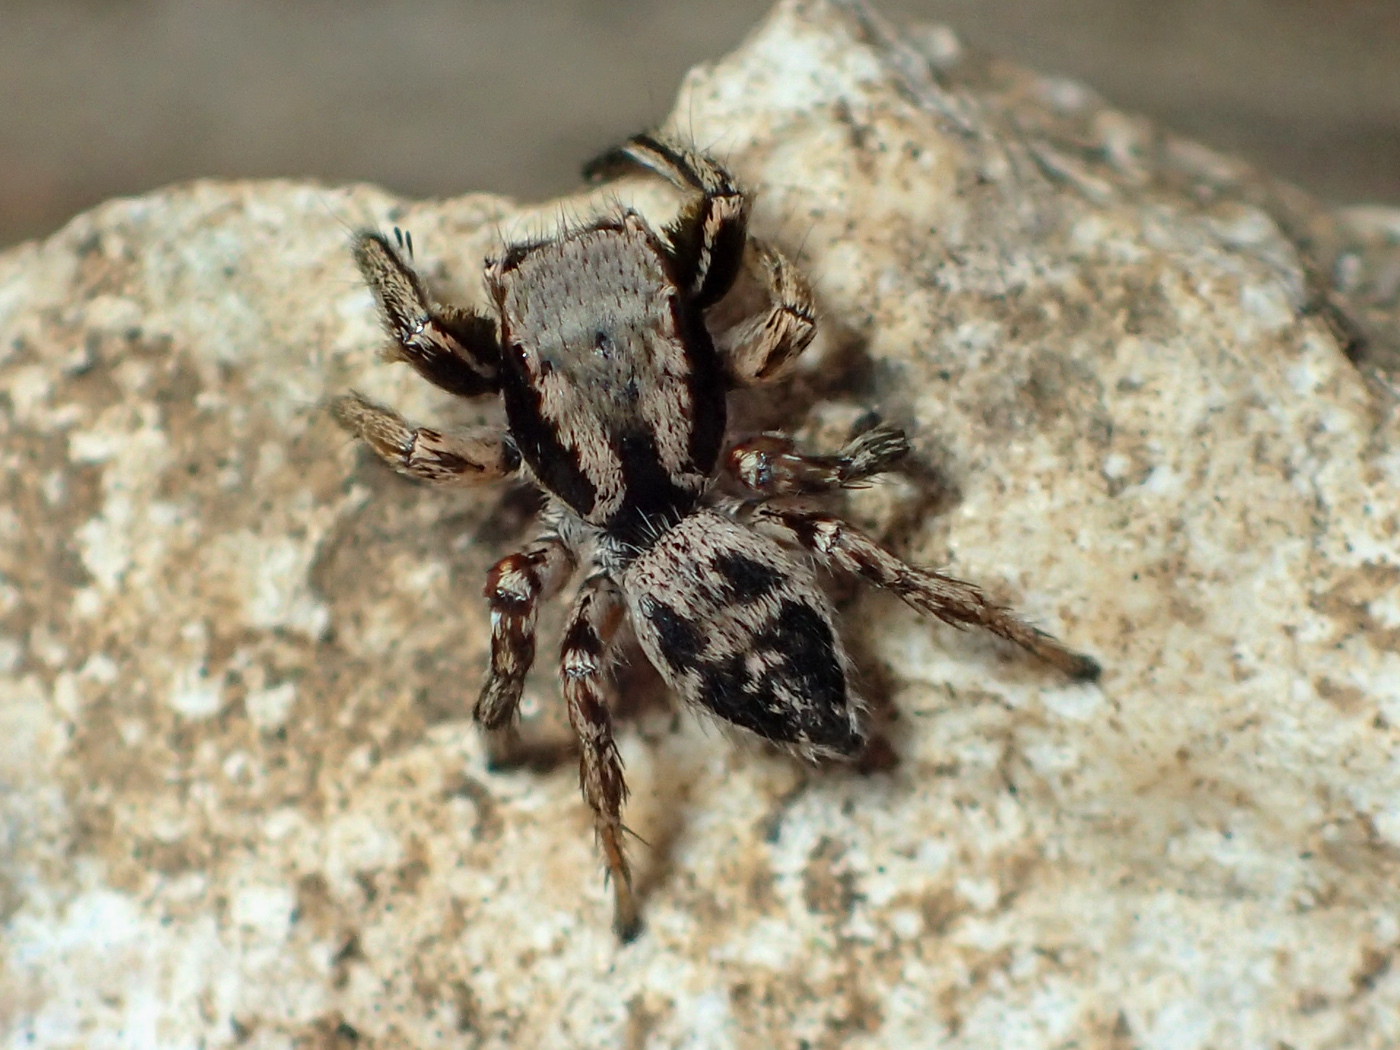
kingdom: Animalia
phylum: Arthropoda
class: Arachnida
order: Araneae
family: Salticidae
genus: Habronattus
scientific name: Habronattus mexicanus
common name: Jumping spiders
